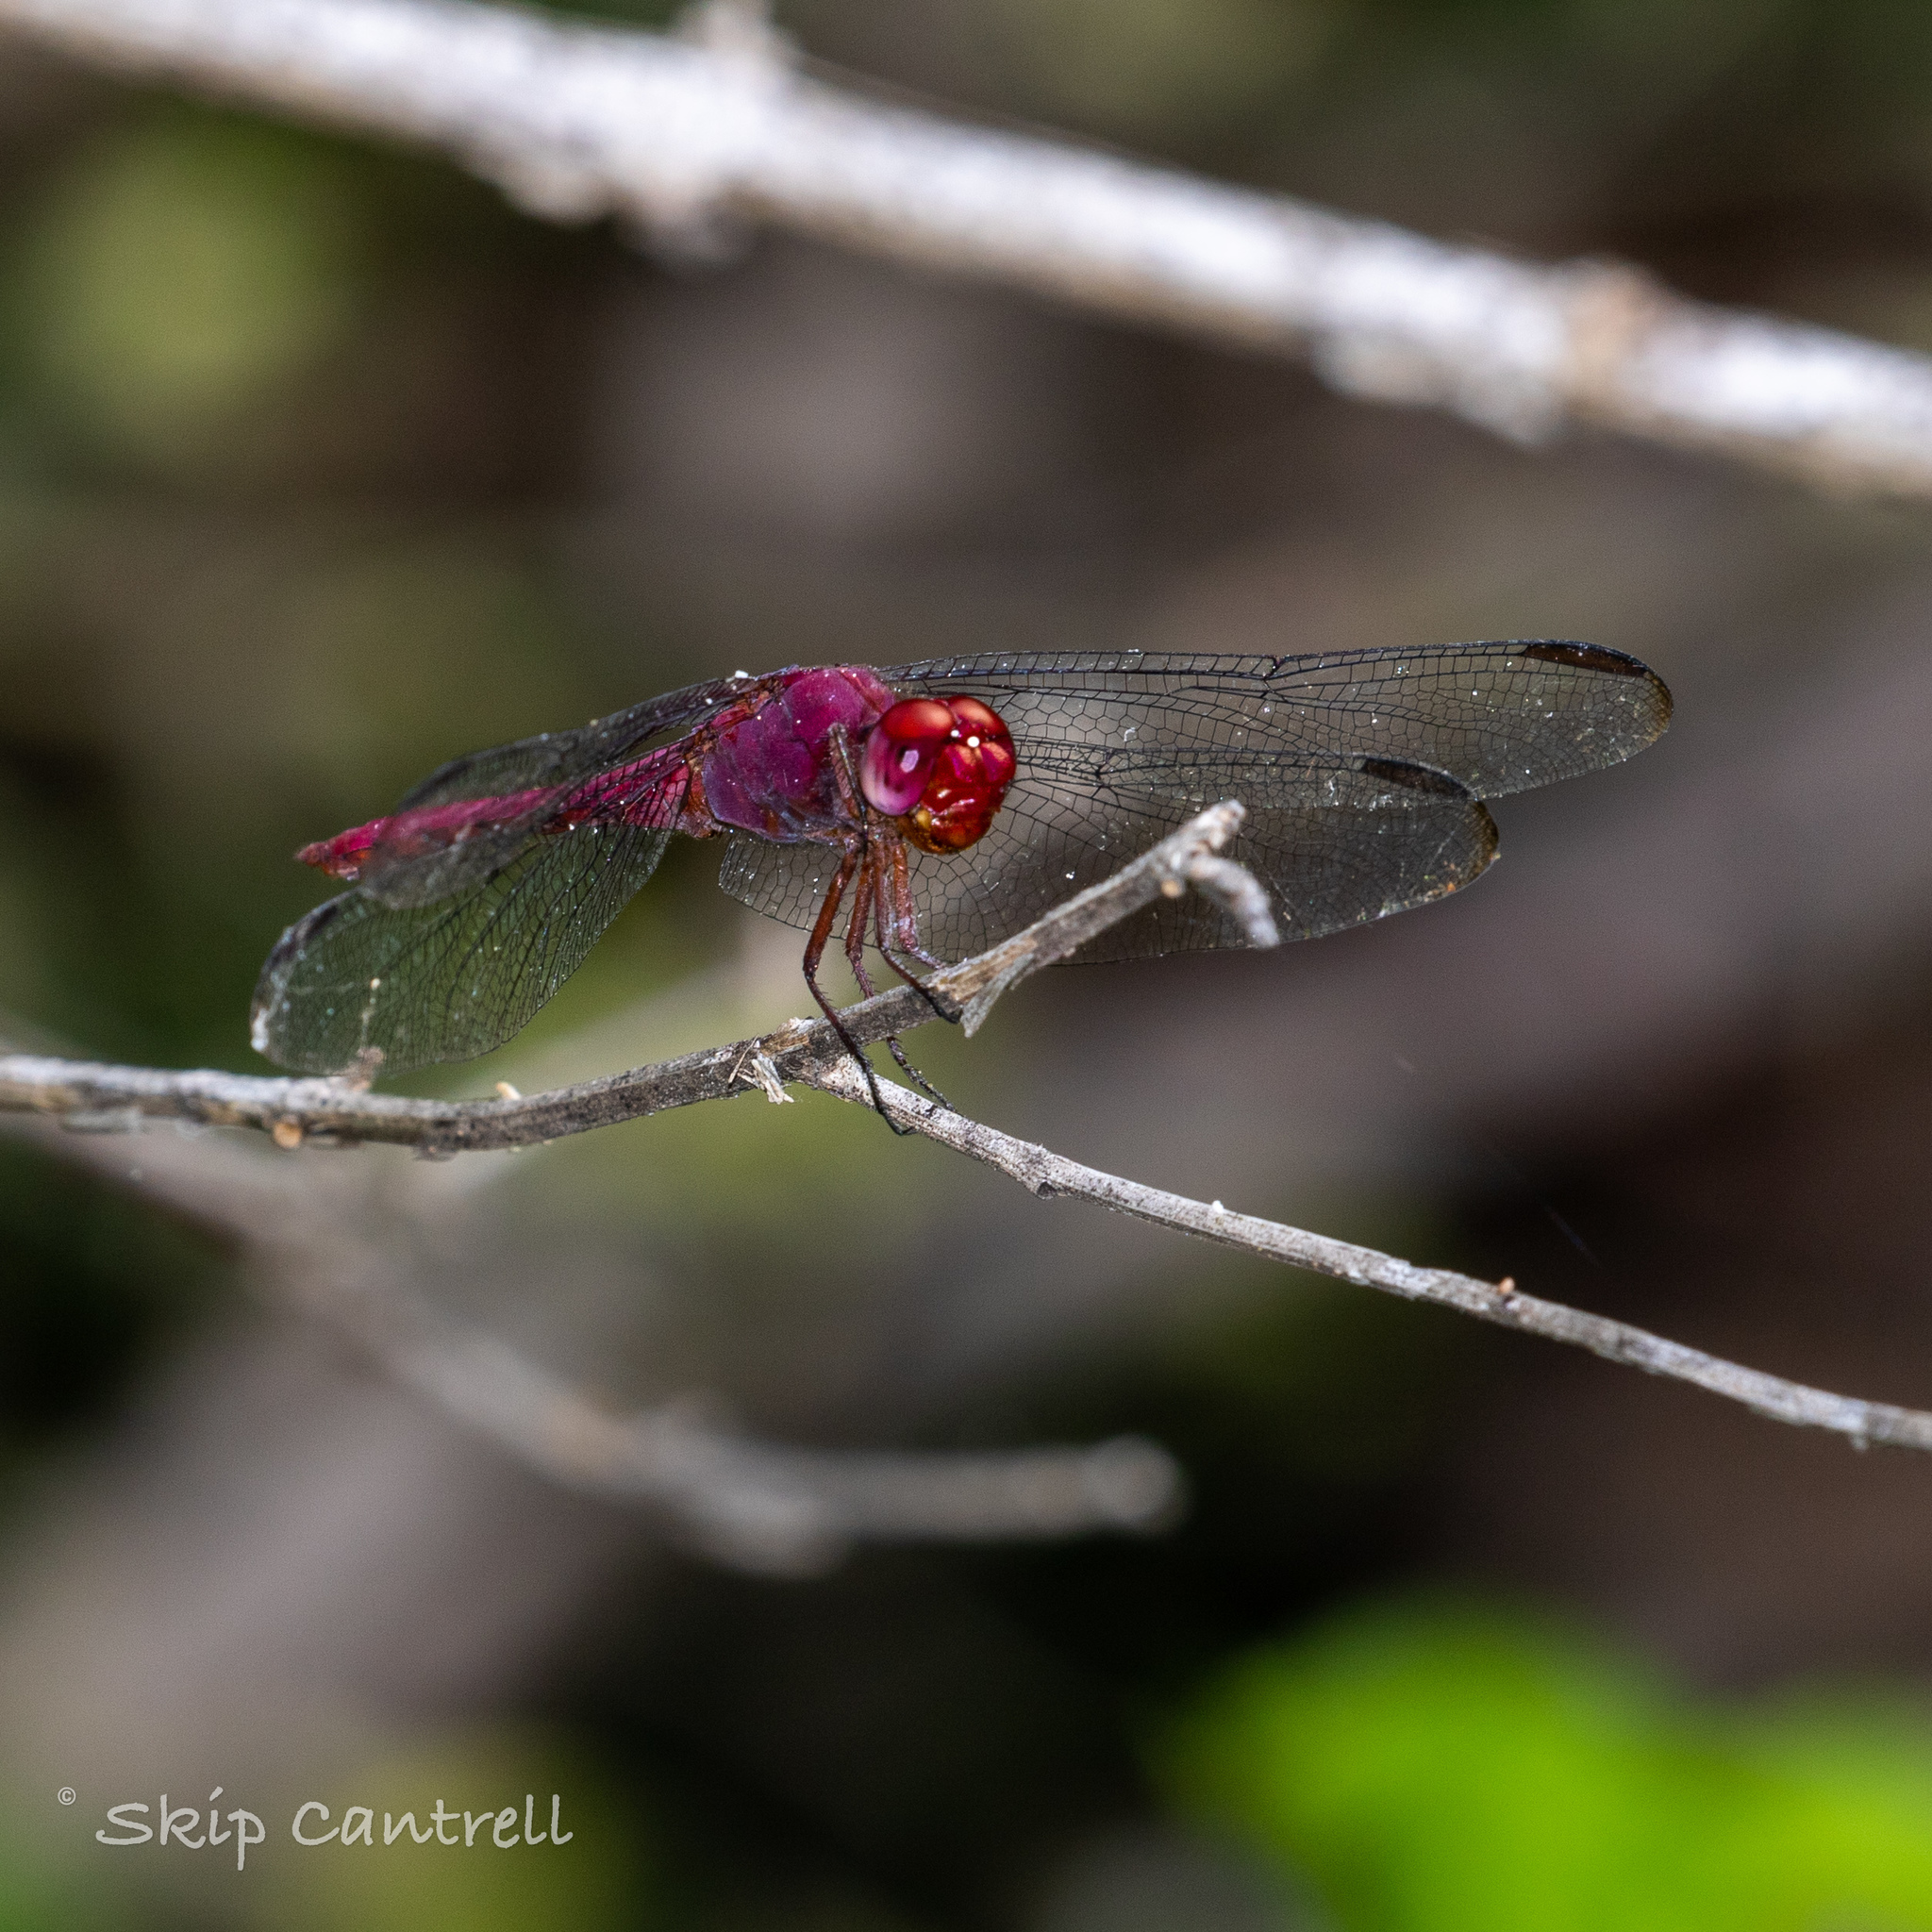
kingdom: Animalia
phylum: Arthropoda
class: Insecta
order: Odonata
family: Libellulidae
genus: Orthemis
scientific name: Orthemis discolor
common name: Carmine skimmer
